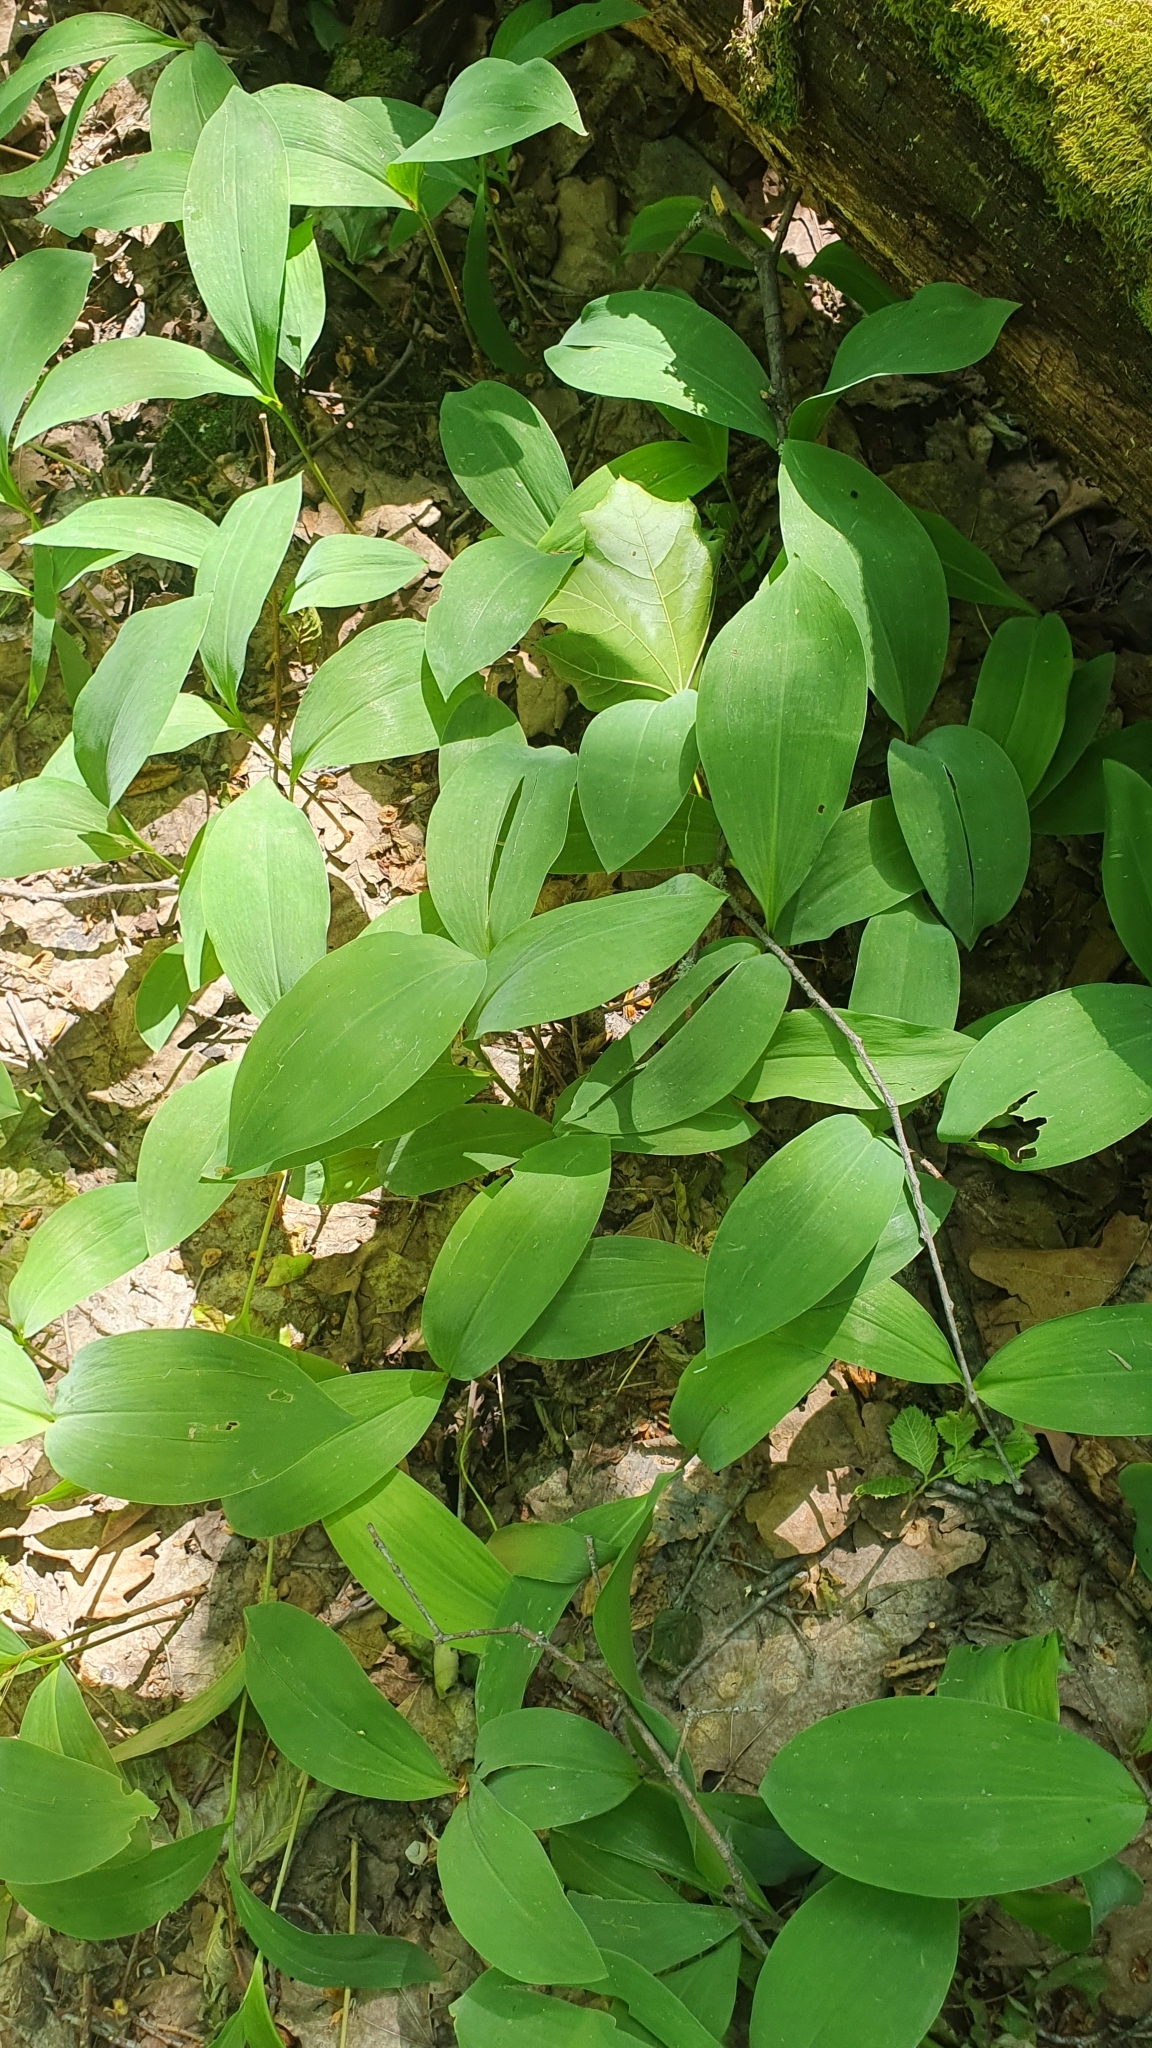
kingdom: Plantae
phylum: Tracheophyta
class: Liliopsida
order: Asparagales
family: Asparagaceae
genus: Convallaria
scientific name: Convallaria majalis
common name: Lily-of-the-valley
